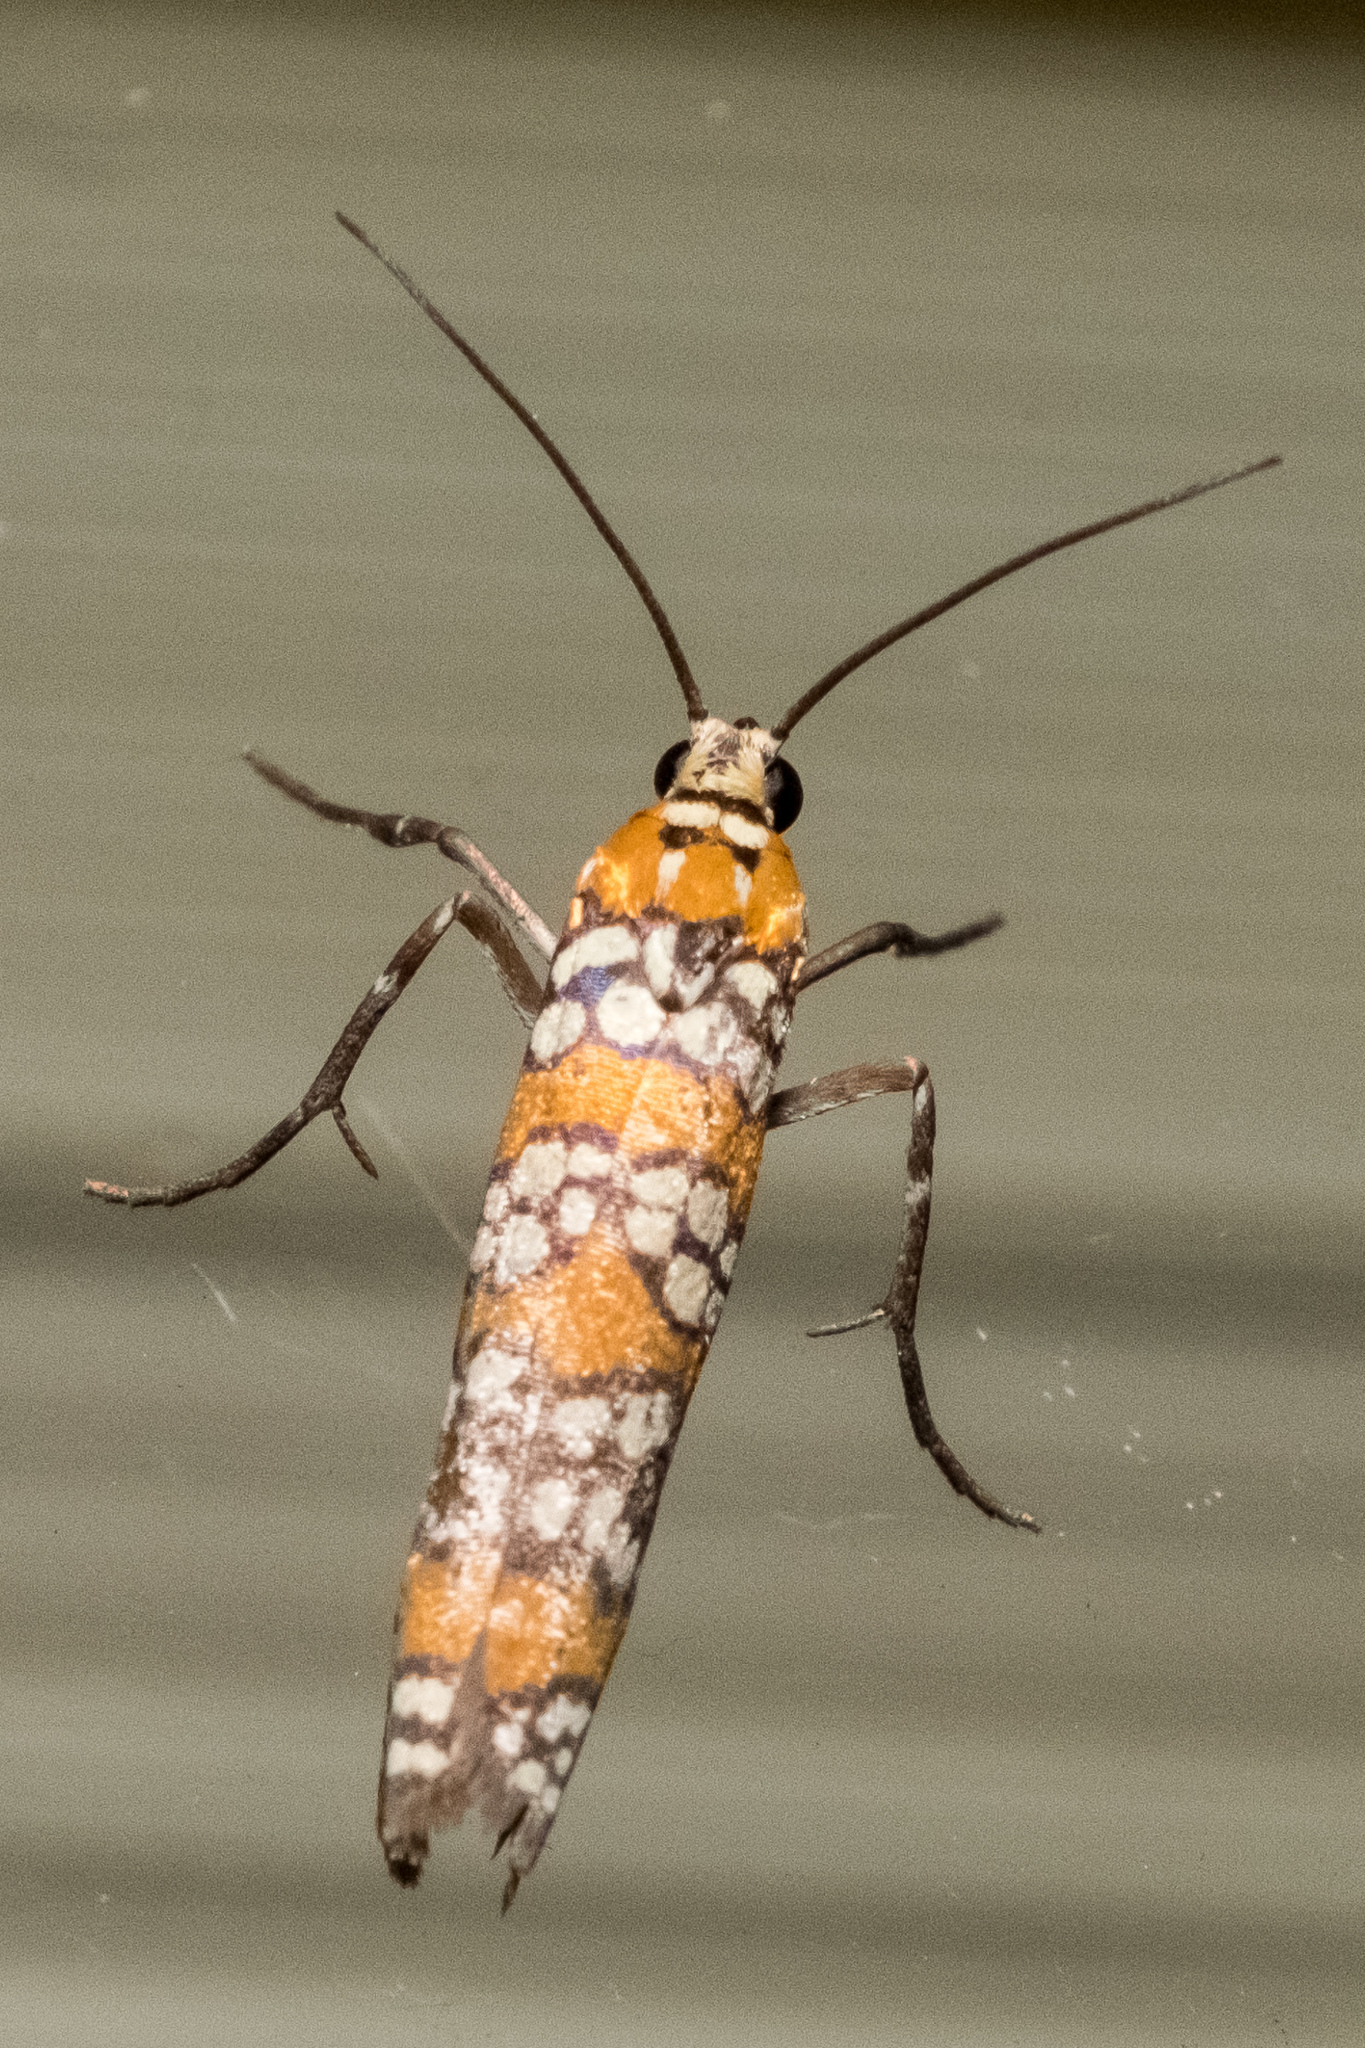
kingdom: Animalia
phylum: Arthropoda
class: Insecta
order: Lepidoptera
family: Attevidae
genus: Atteva
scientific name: Atteva punctella
